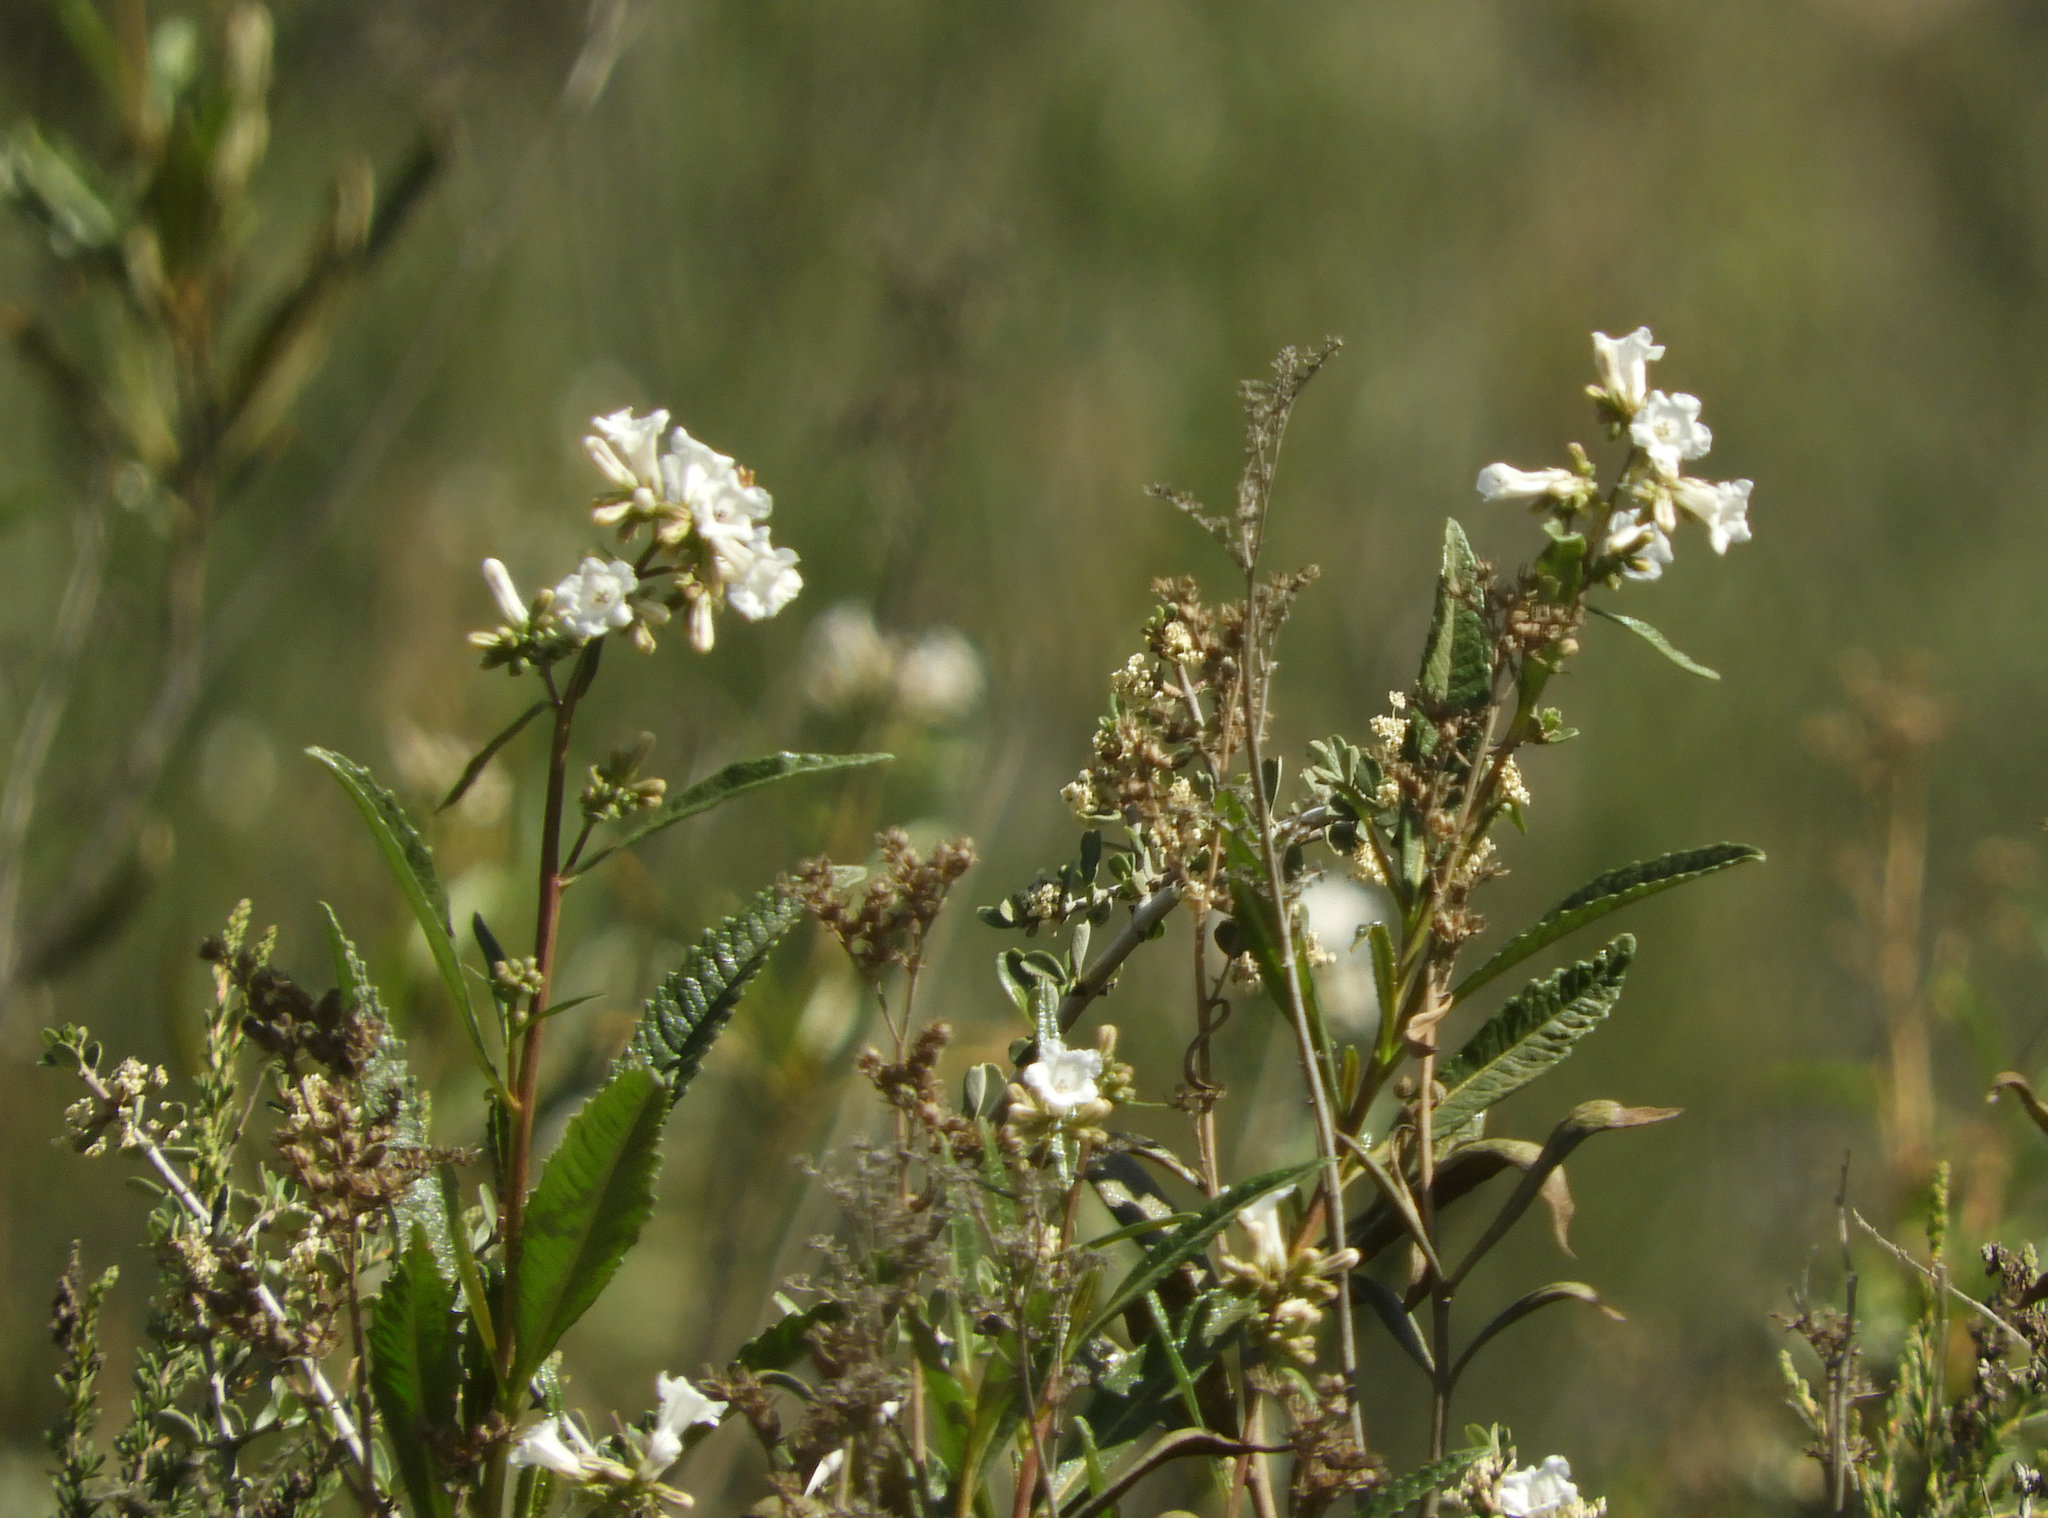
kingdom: Plantae
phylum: Tracheophyta
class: Magnoliopsida
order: Boraginales
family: Namaceae
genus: Eriodictyon
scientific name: Eriodictyon californicum
